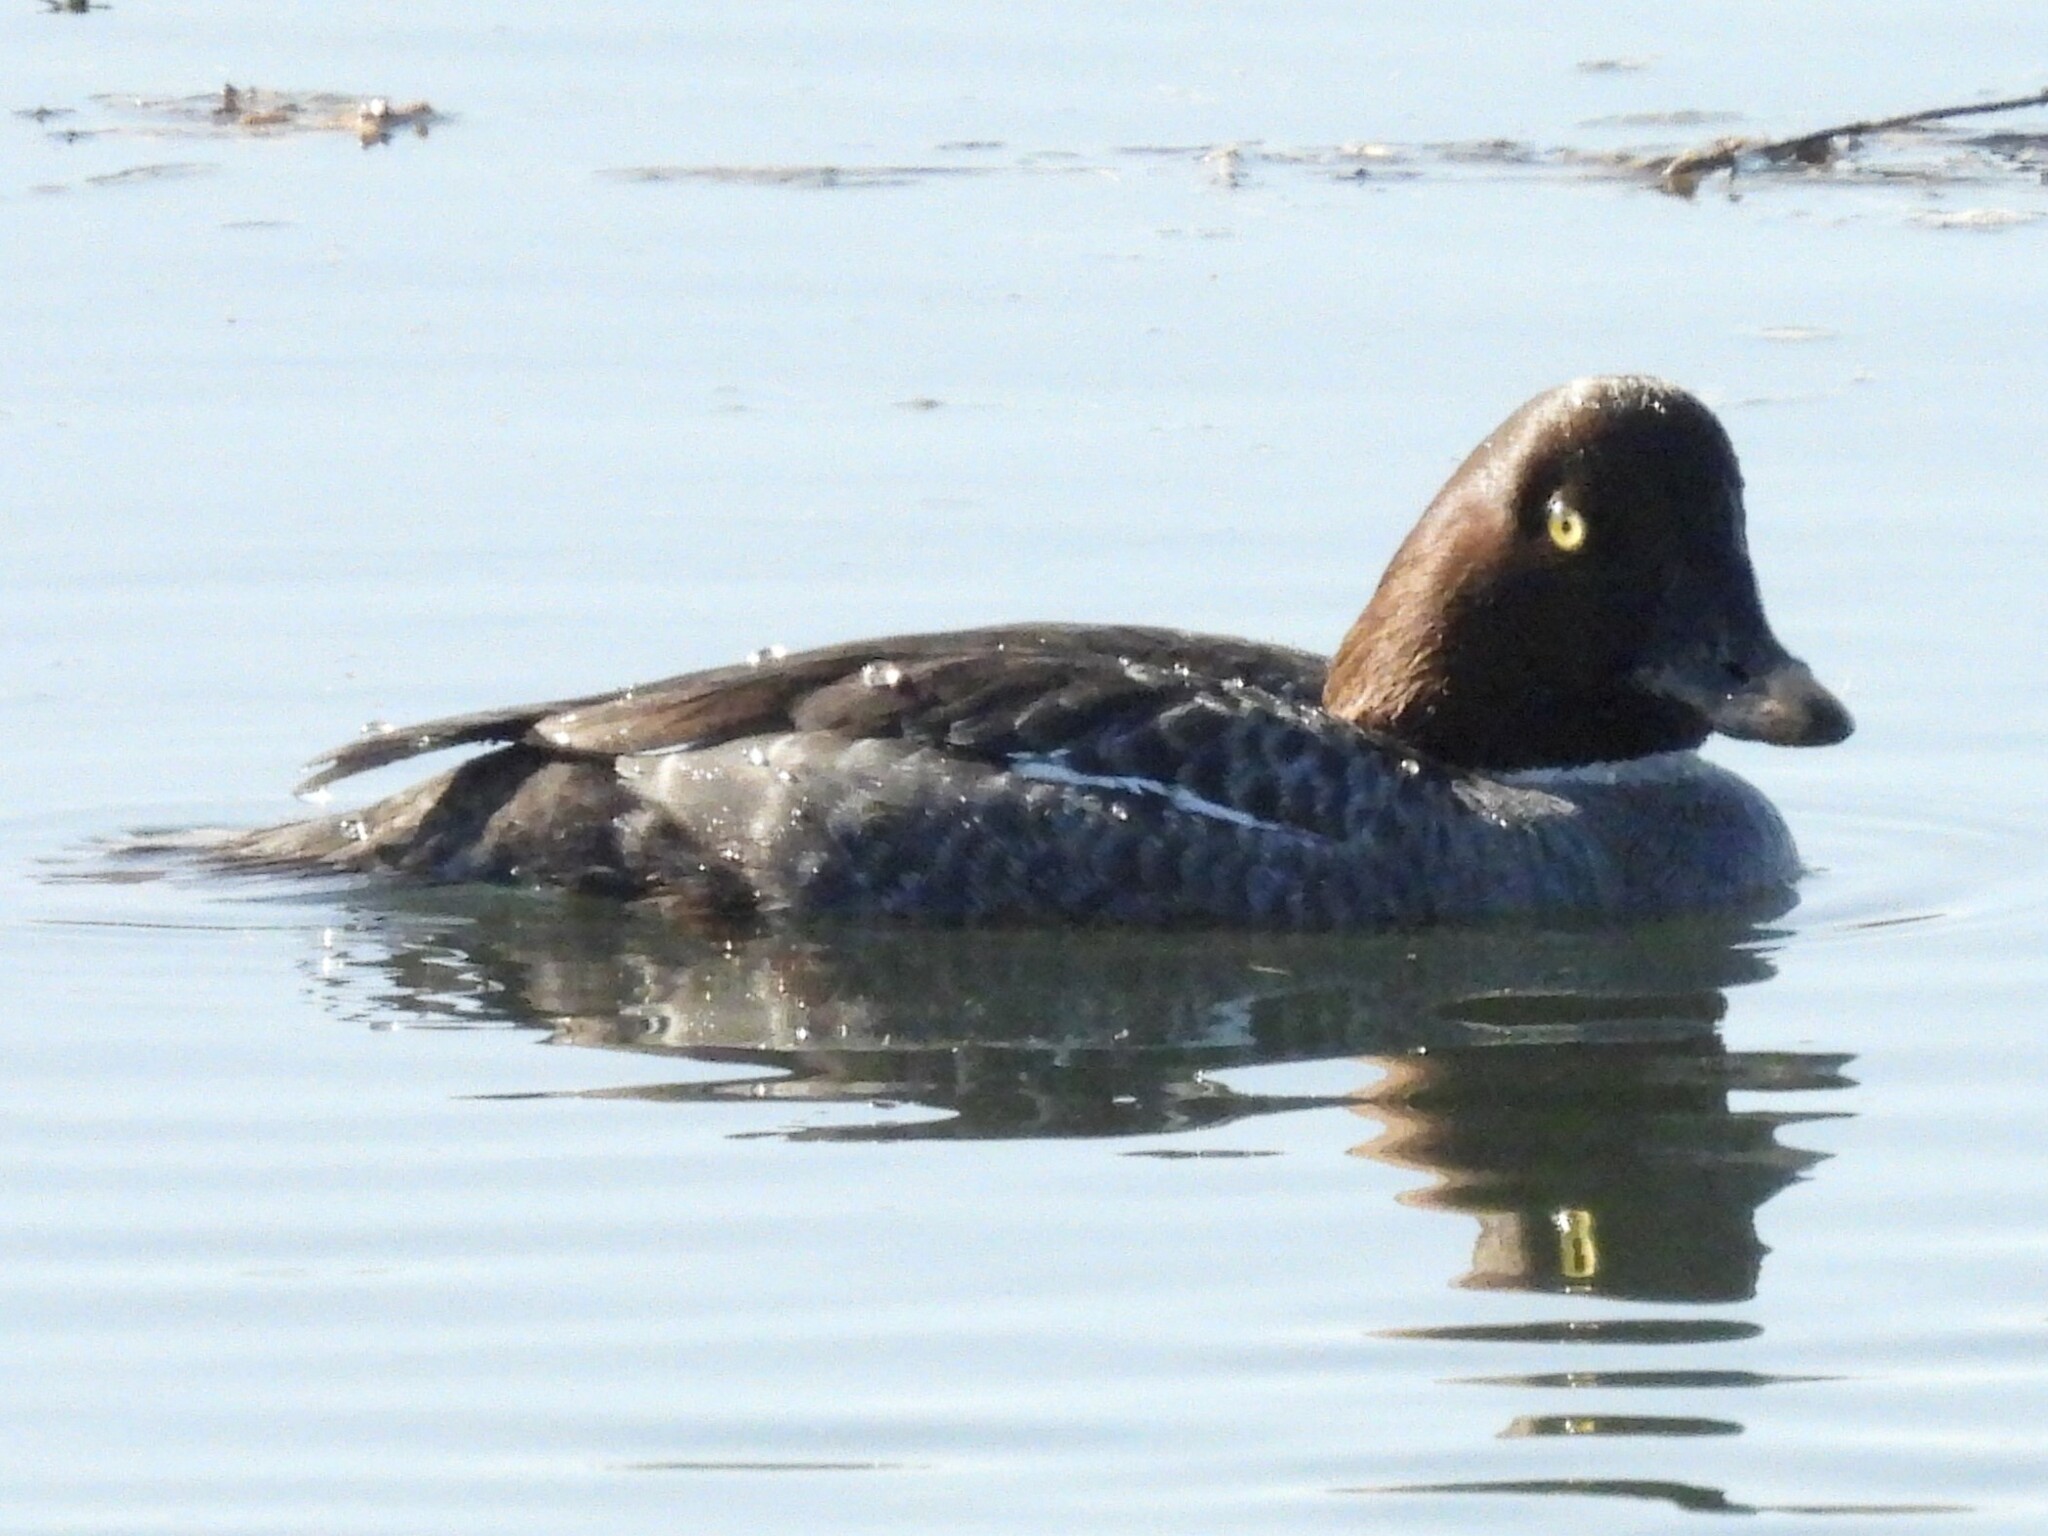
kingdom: Animalia
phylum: Chordata
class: Aves
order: Anseriformes
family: Anatidae
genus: Bucephala
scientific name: Bucephala clangula
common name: Common goldeneye
